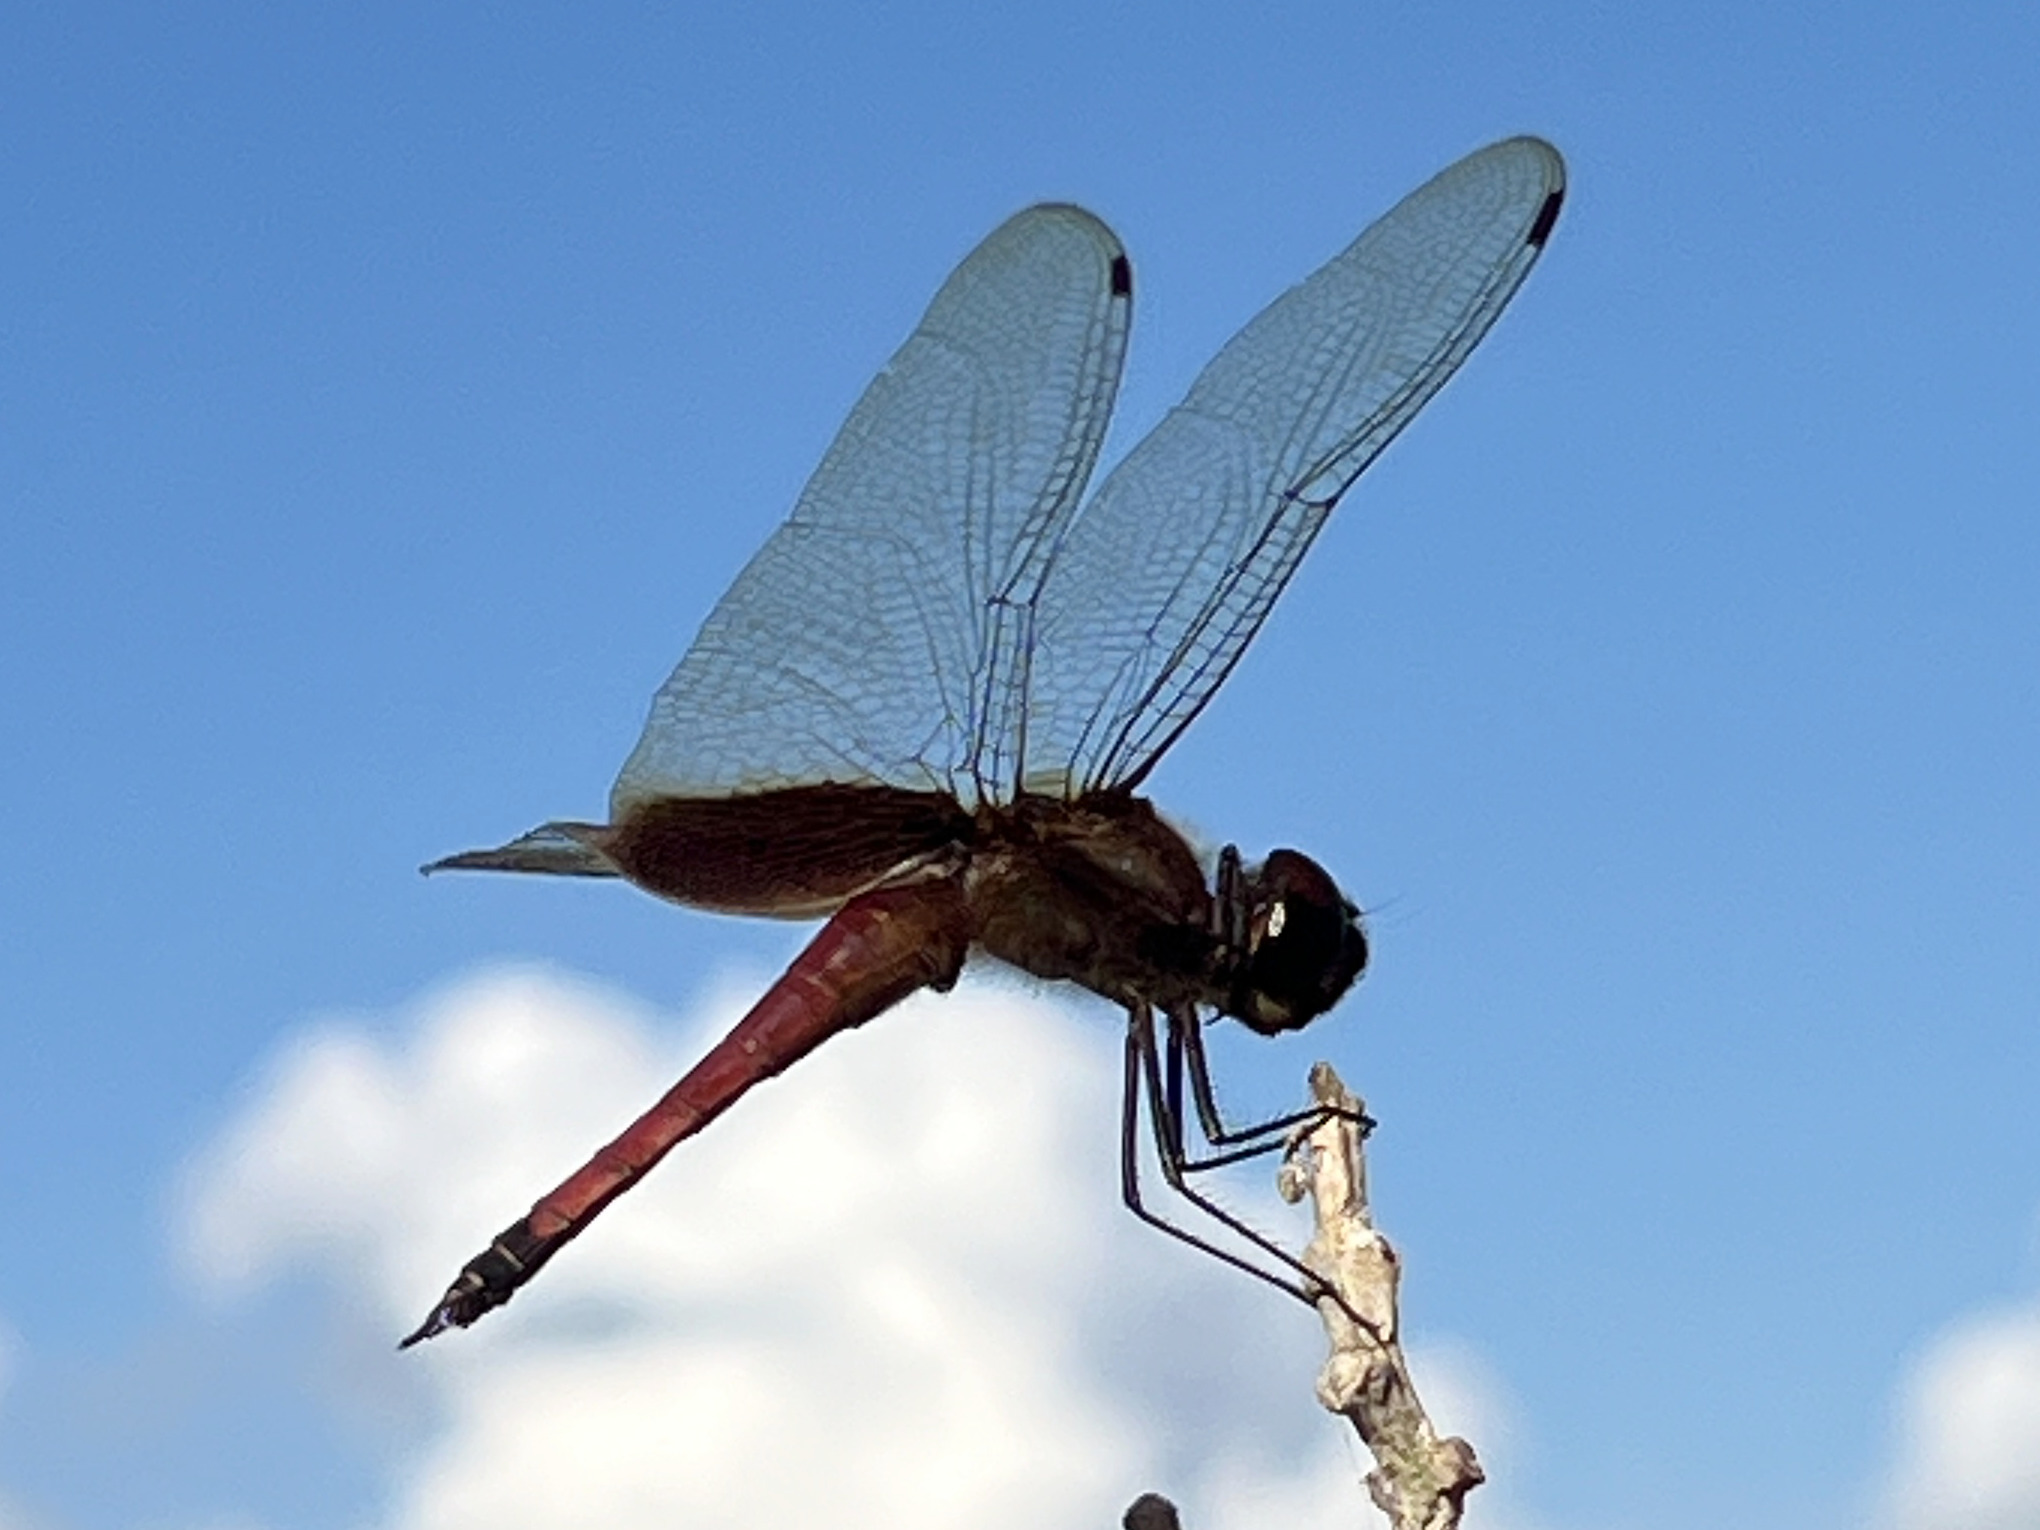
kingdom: Animalia
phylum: Arthropoda
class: Insecta
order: Odonata
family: Libellulidae
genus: Tramea
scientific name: Tramea darwini
